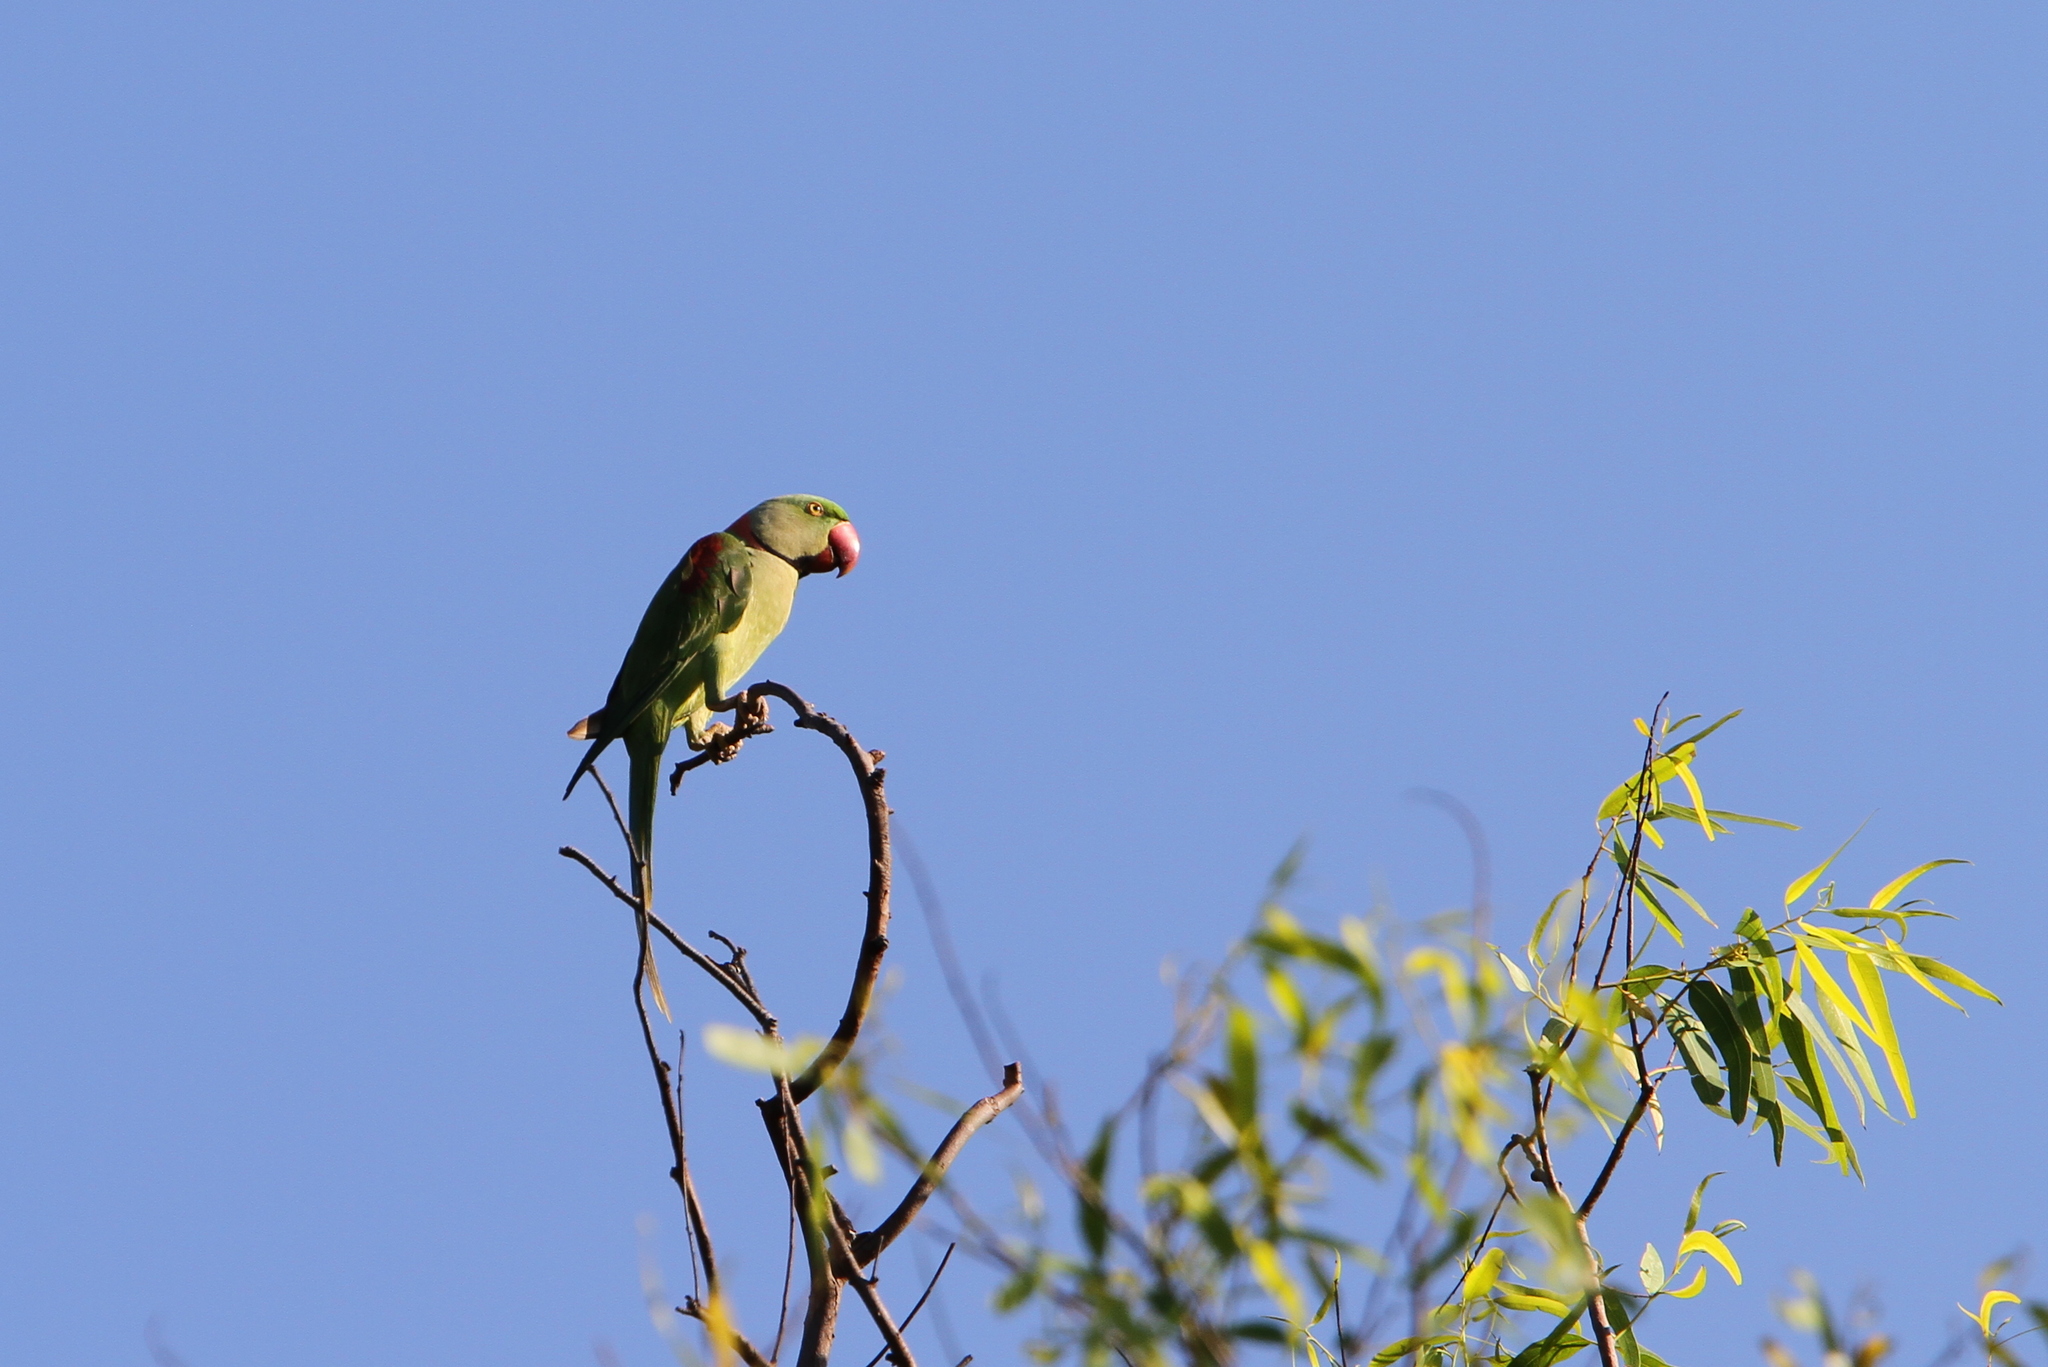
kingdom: Animalia
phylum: Chordata
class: Aves
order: Psittaciformes
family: Psittacidae
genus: Psittacula
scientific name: Psittacula eupatria
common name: Alexandrine parakeet
